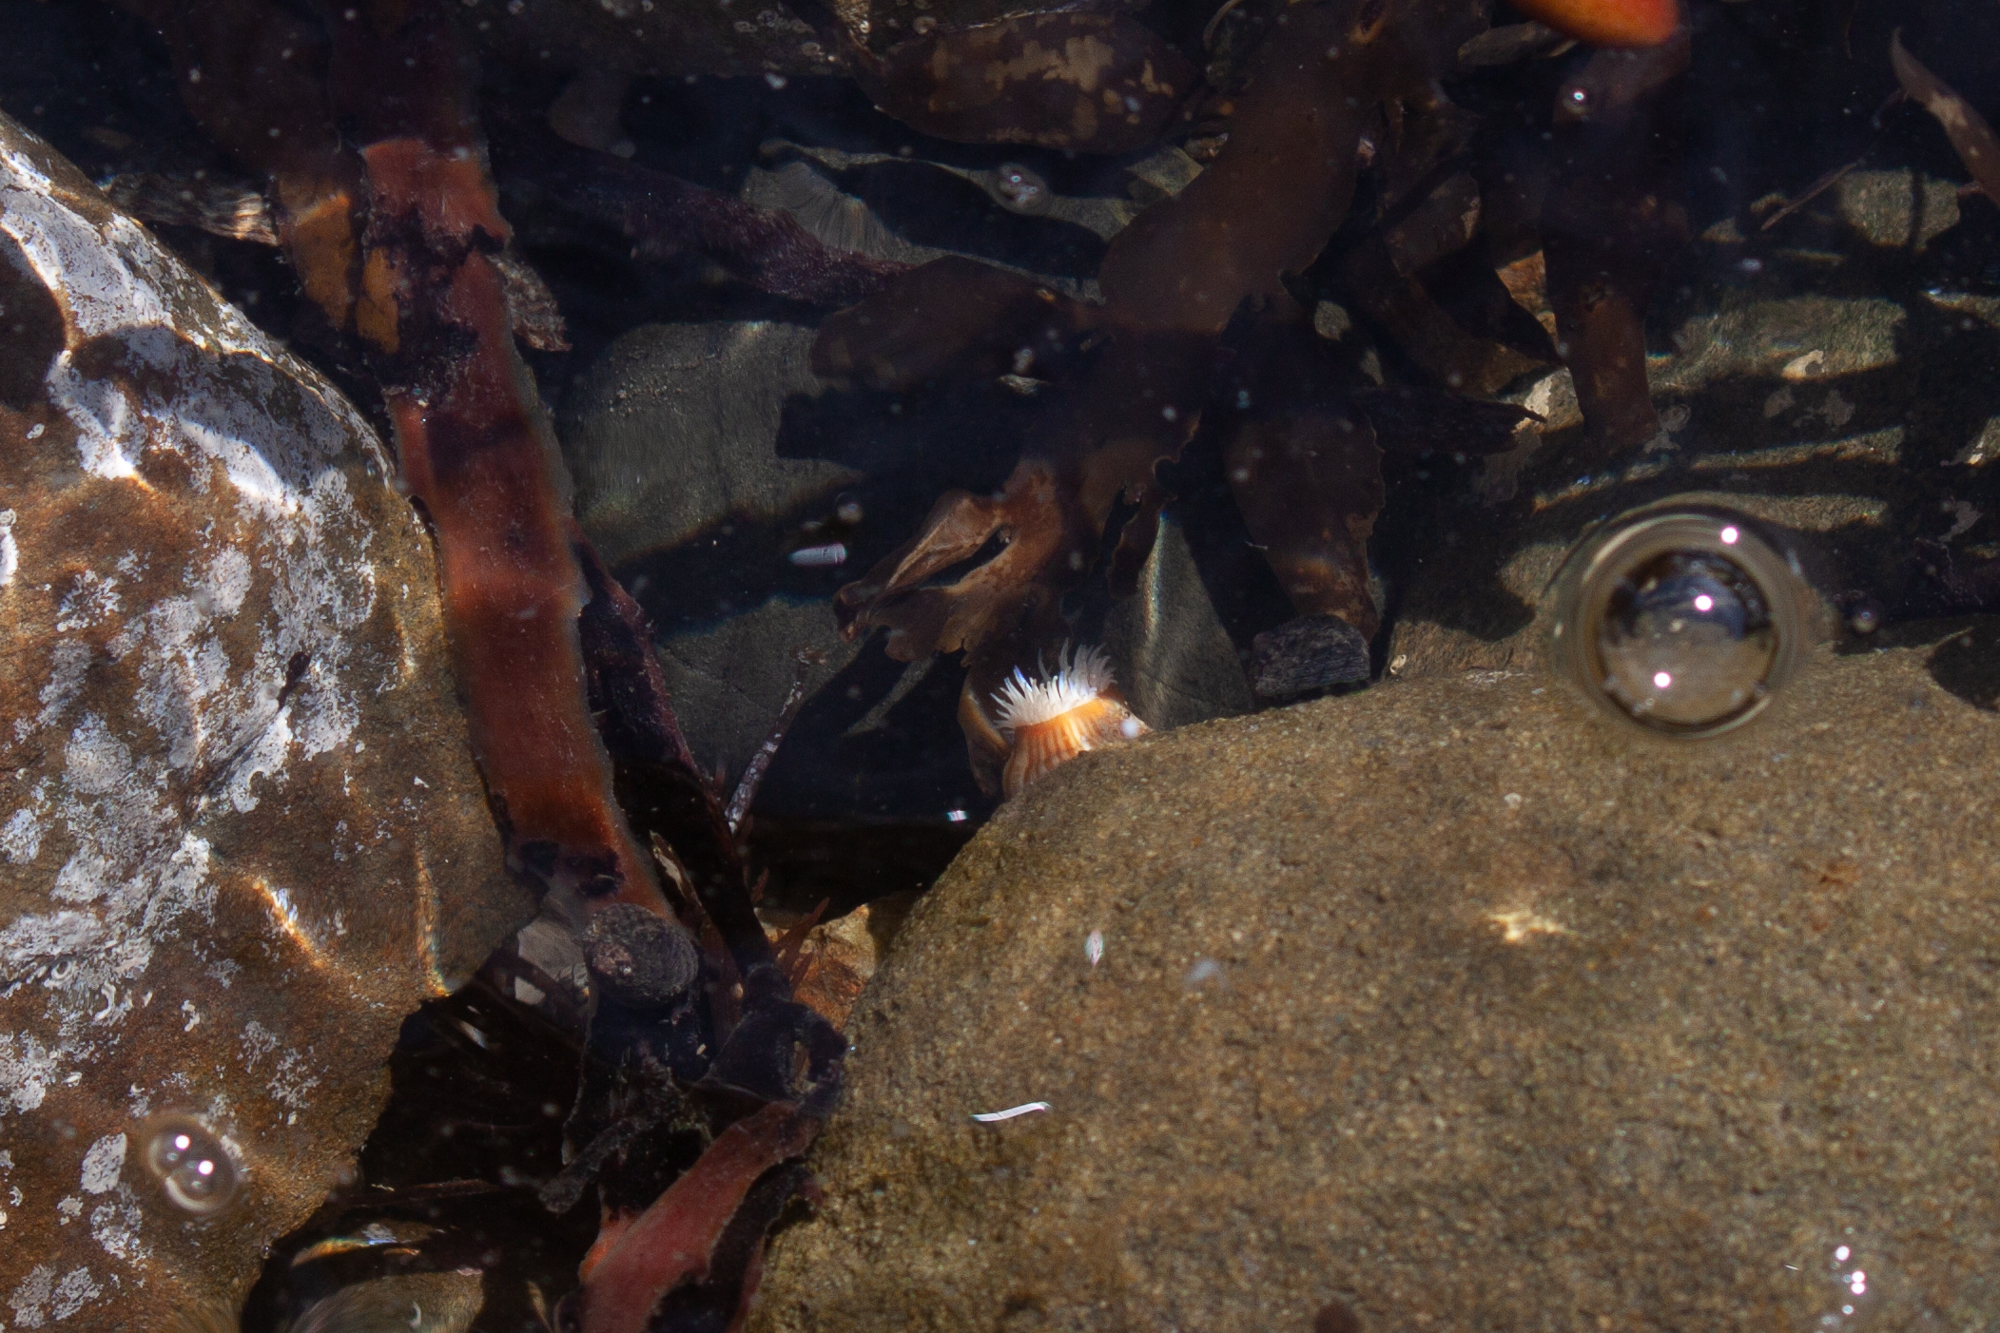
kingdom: Animalia
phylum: Cnidaria
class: Anthozoa
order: Actiniaria
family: Sagartiidae
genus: Anthothoe
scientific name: Anthothoe albocincta
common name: Orange striped anemone
